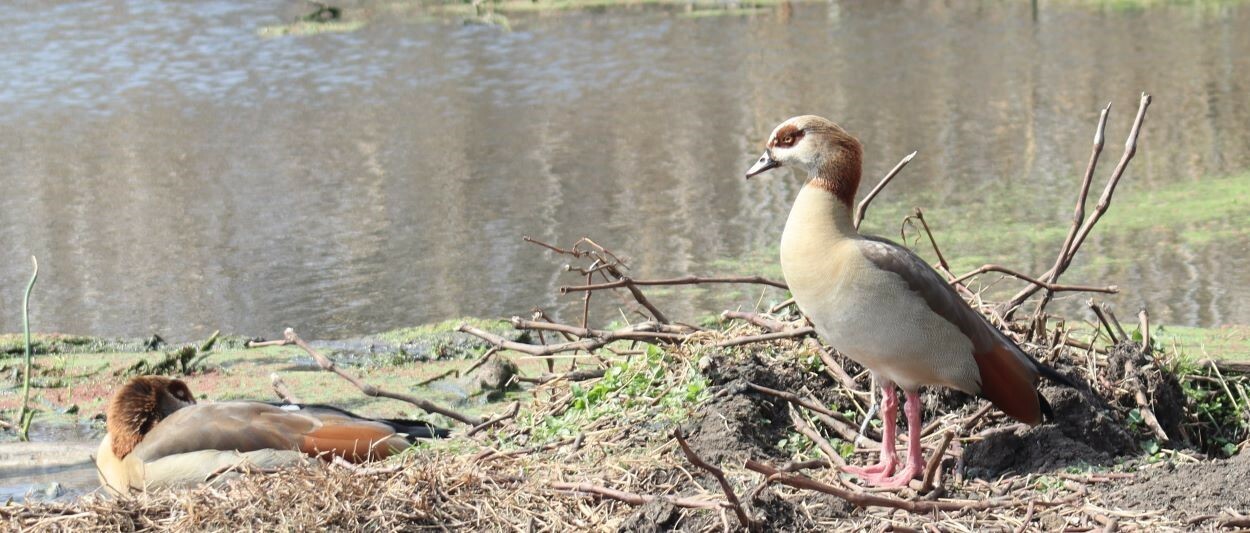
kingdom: Animalia
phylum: Chordata
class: Aves
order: Anseriformes
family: Anatidae
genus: Alopochen
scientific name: Alopochen aegyptiaca
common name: Egyptian goose
